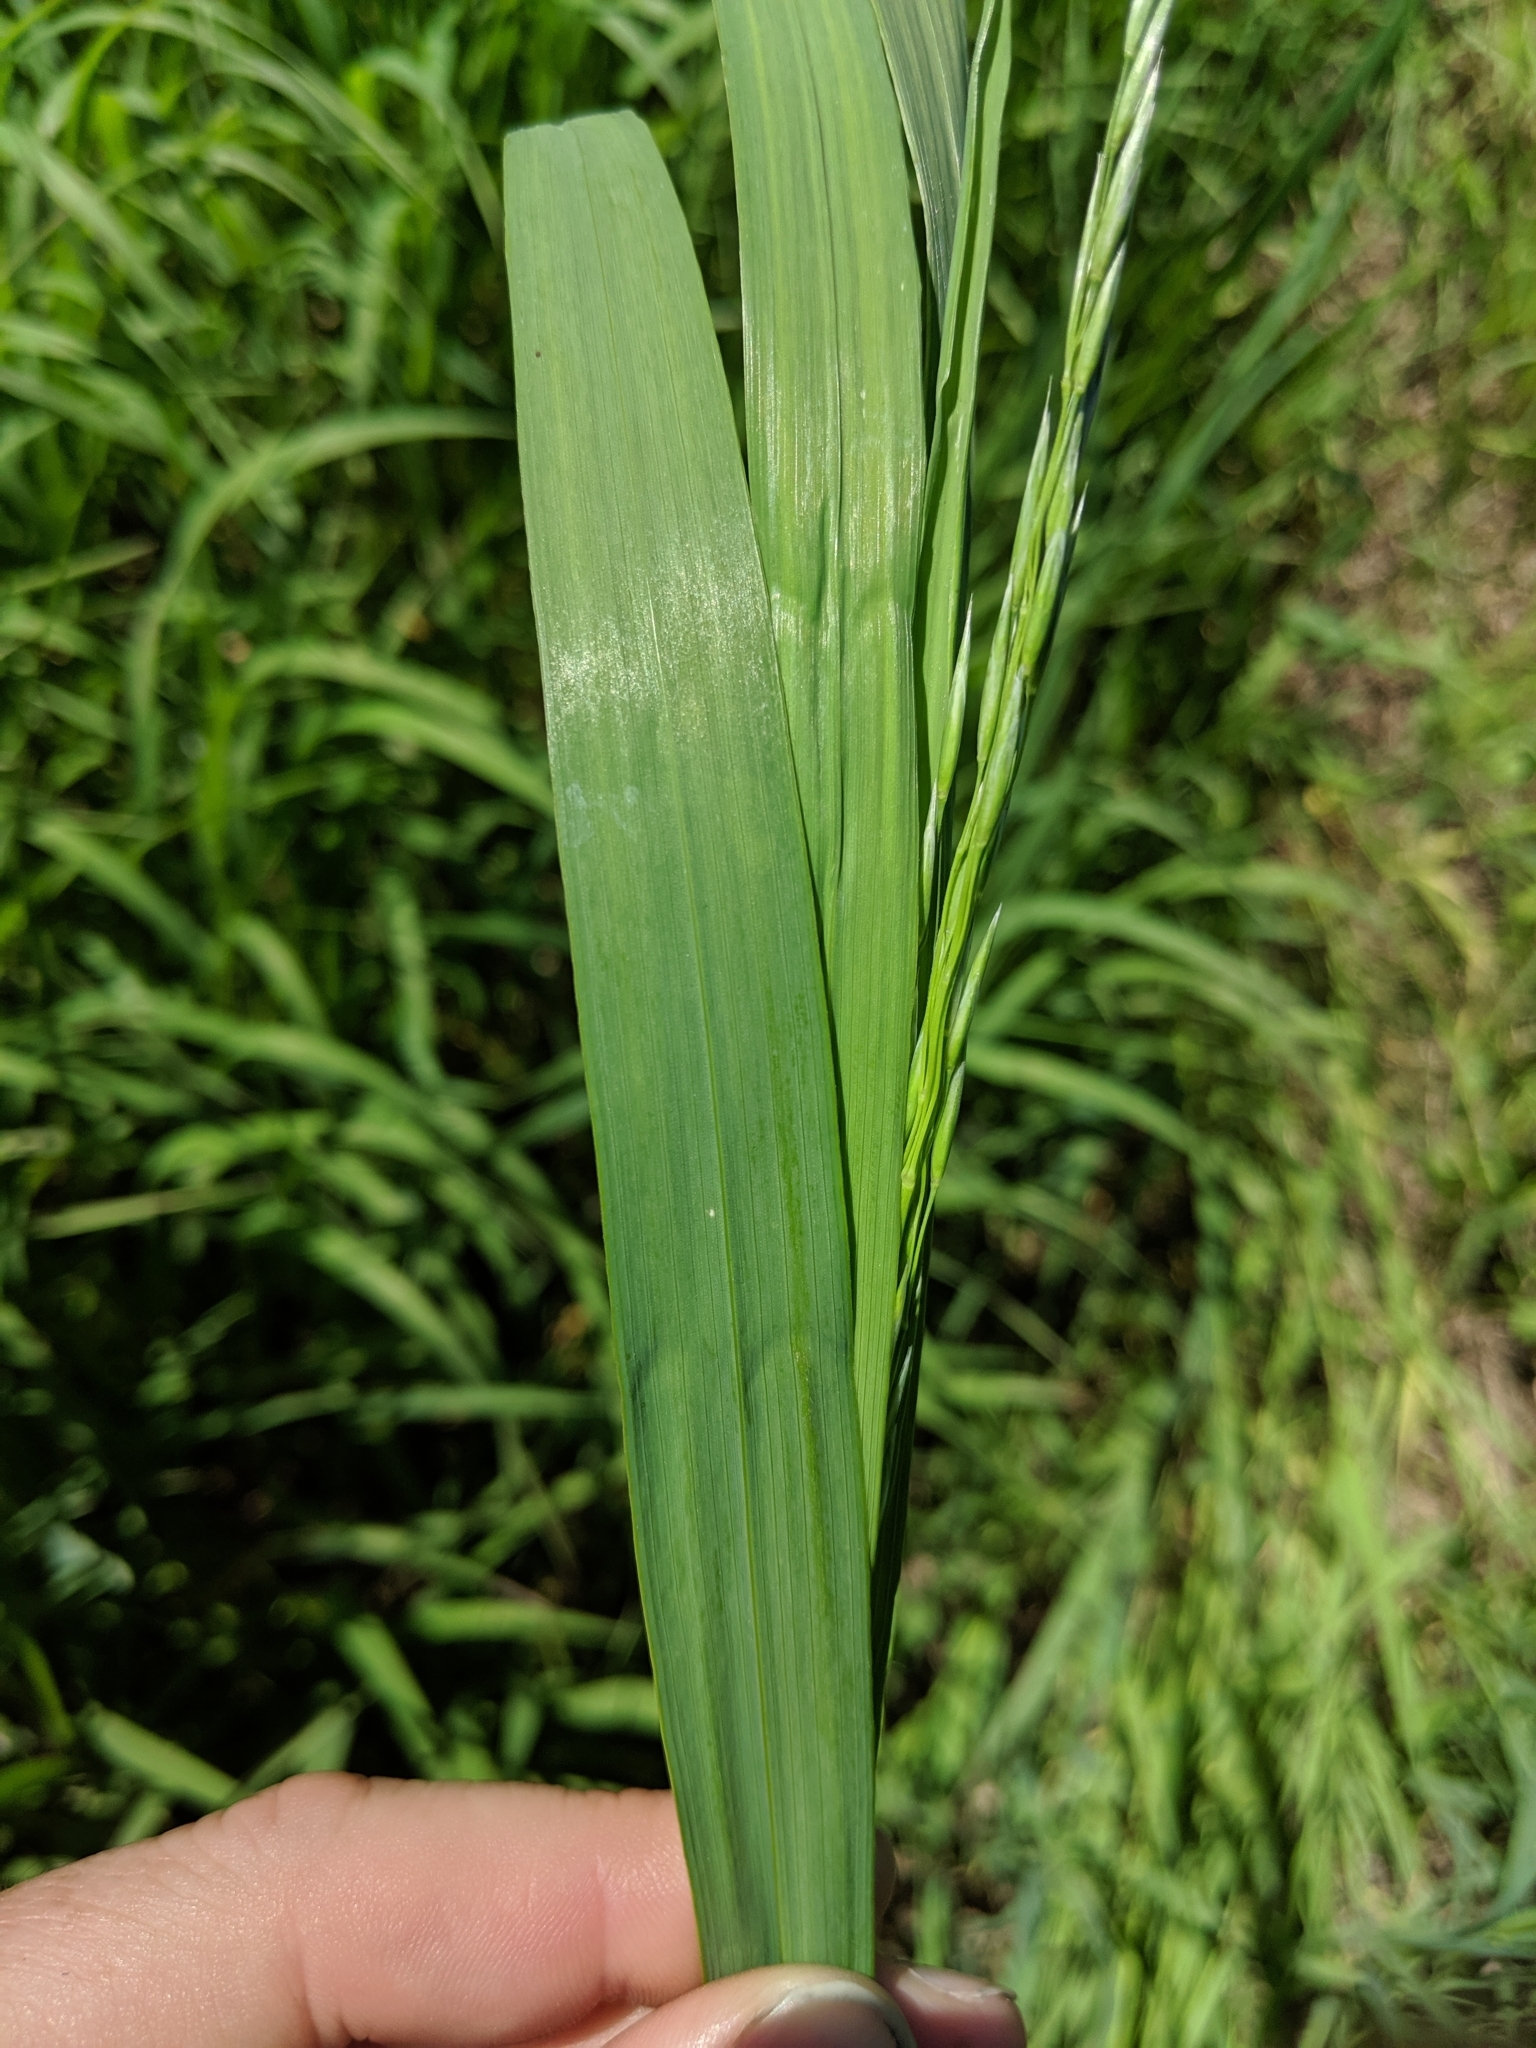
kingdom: Plantae
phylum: Tracheophyta
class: Liliopsida
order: Poales
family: Poaceae
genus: Bromus
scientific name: Bromus inermis
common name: Smooth brome
